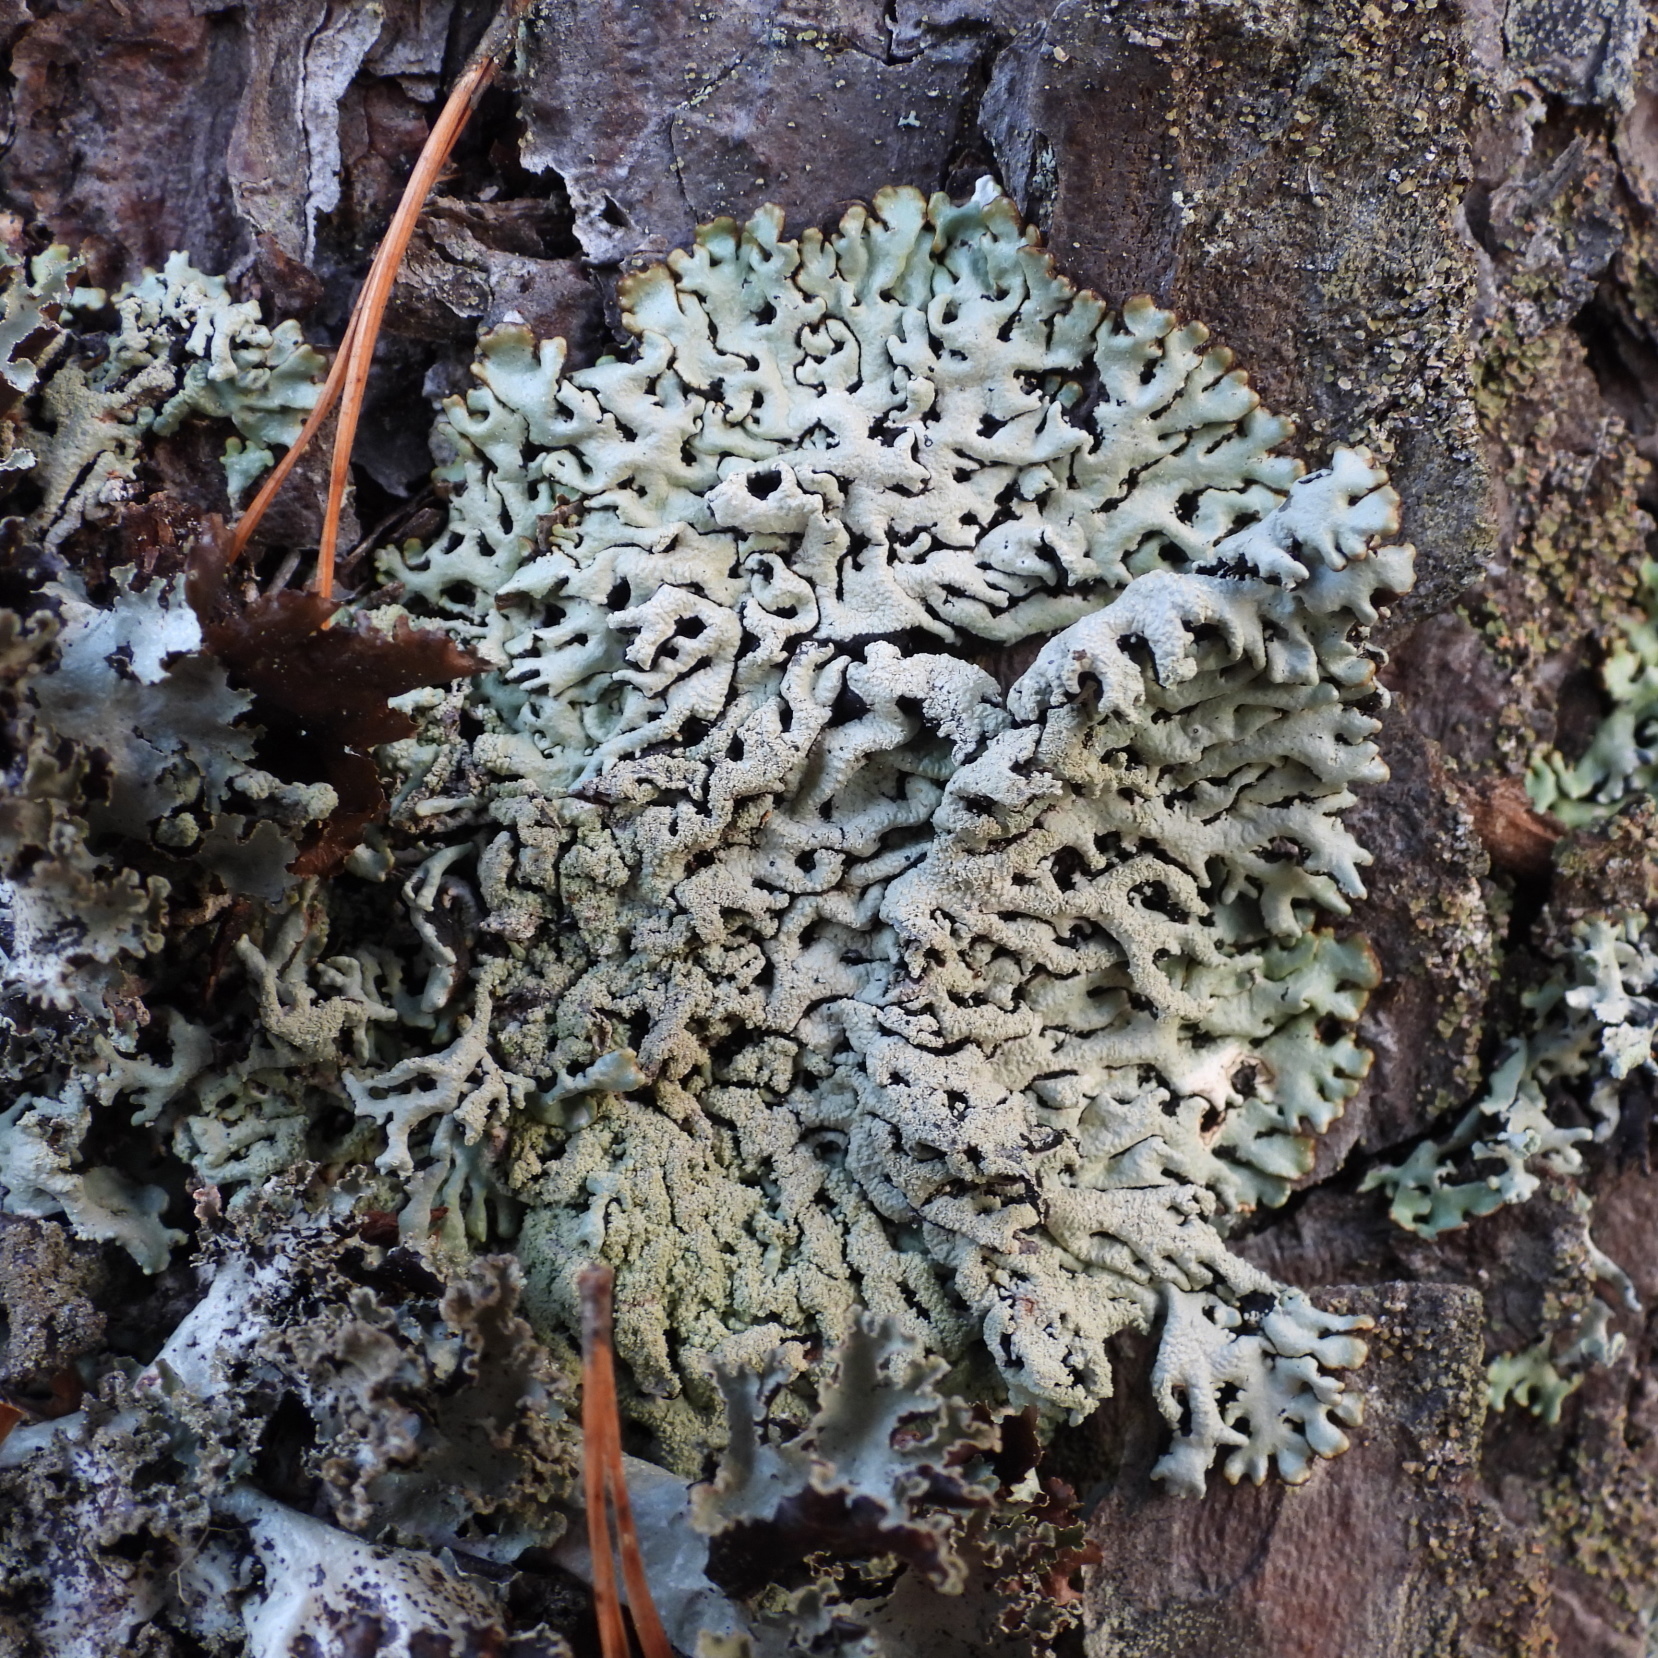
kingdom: Fungi
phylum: Ascomycota
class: Lecanoromycetes
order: Lecanorales
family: Parmeliaceae
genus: Hypogymnia
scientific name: Hypogymnia farinacea
